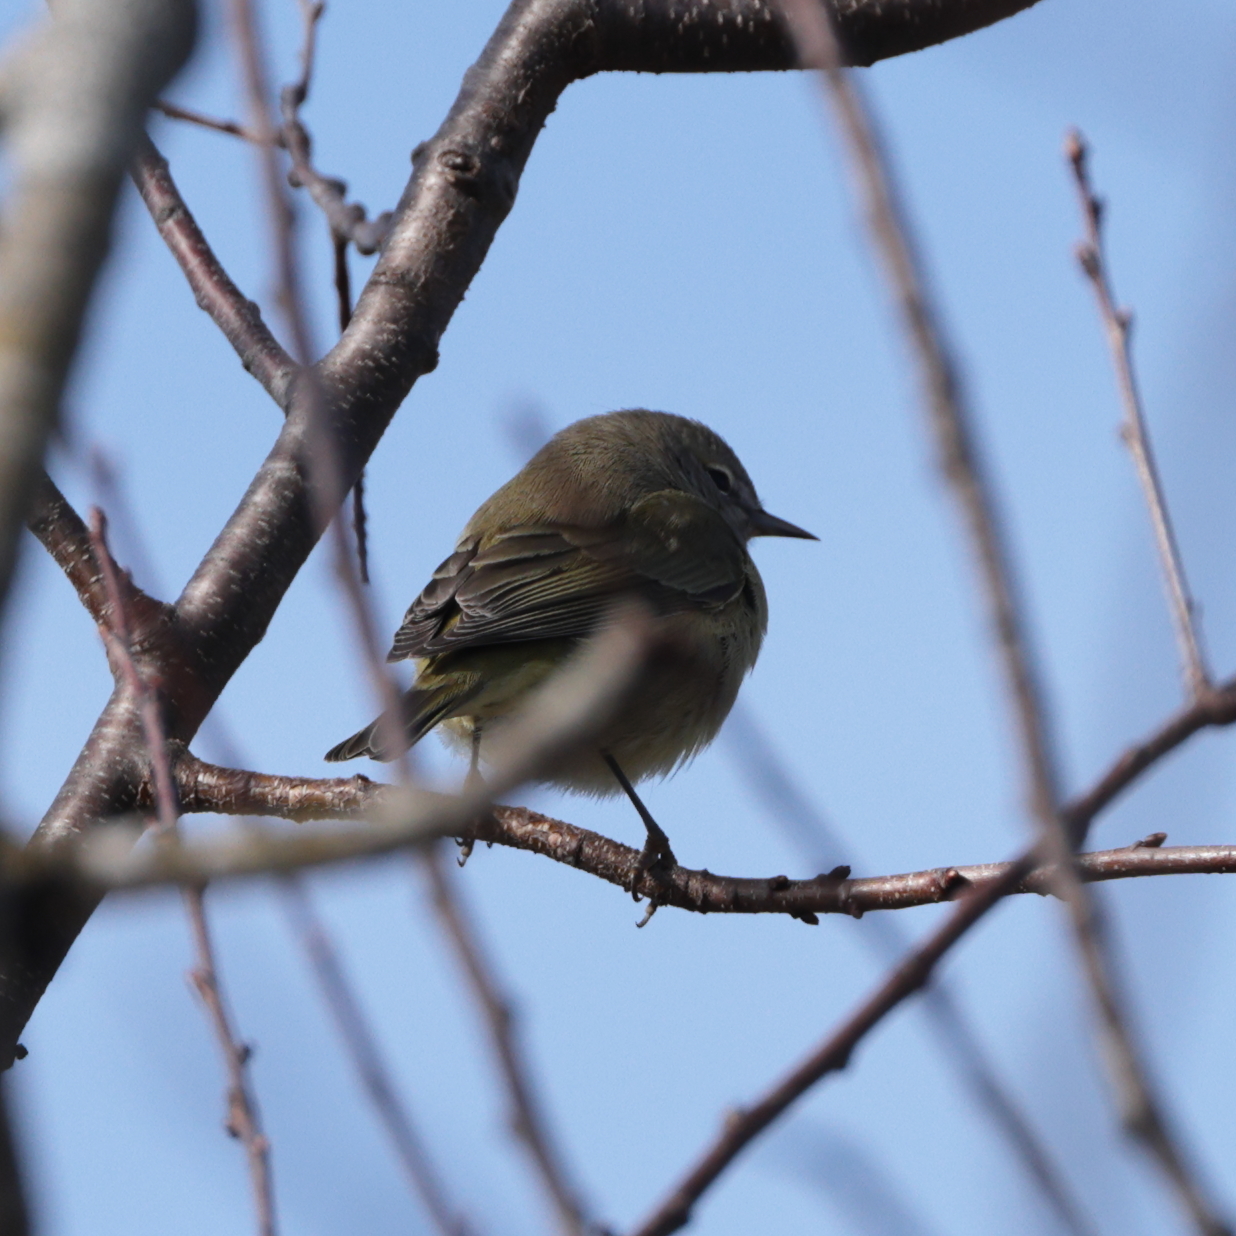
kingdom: Animalia
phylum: Chordata
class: Aves
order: Passeriformes
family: Parulidae
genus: Leiothlypis
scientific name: Leiothlypis celata
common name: Orange-crowned warbler
